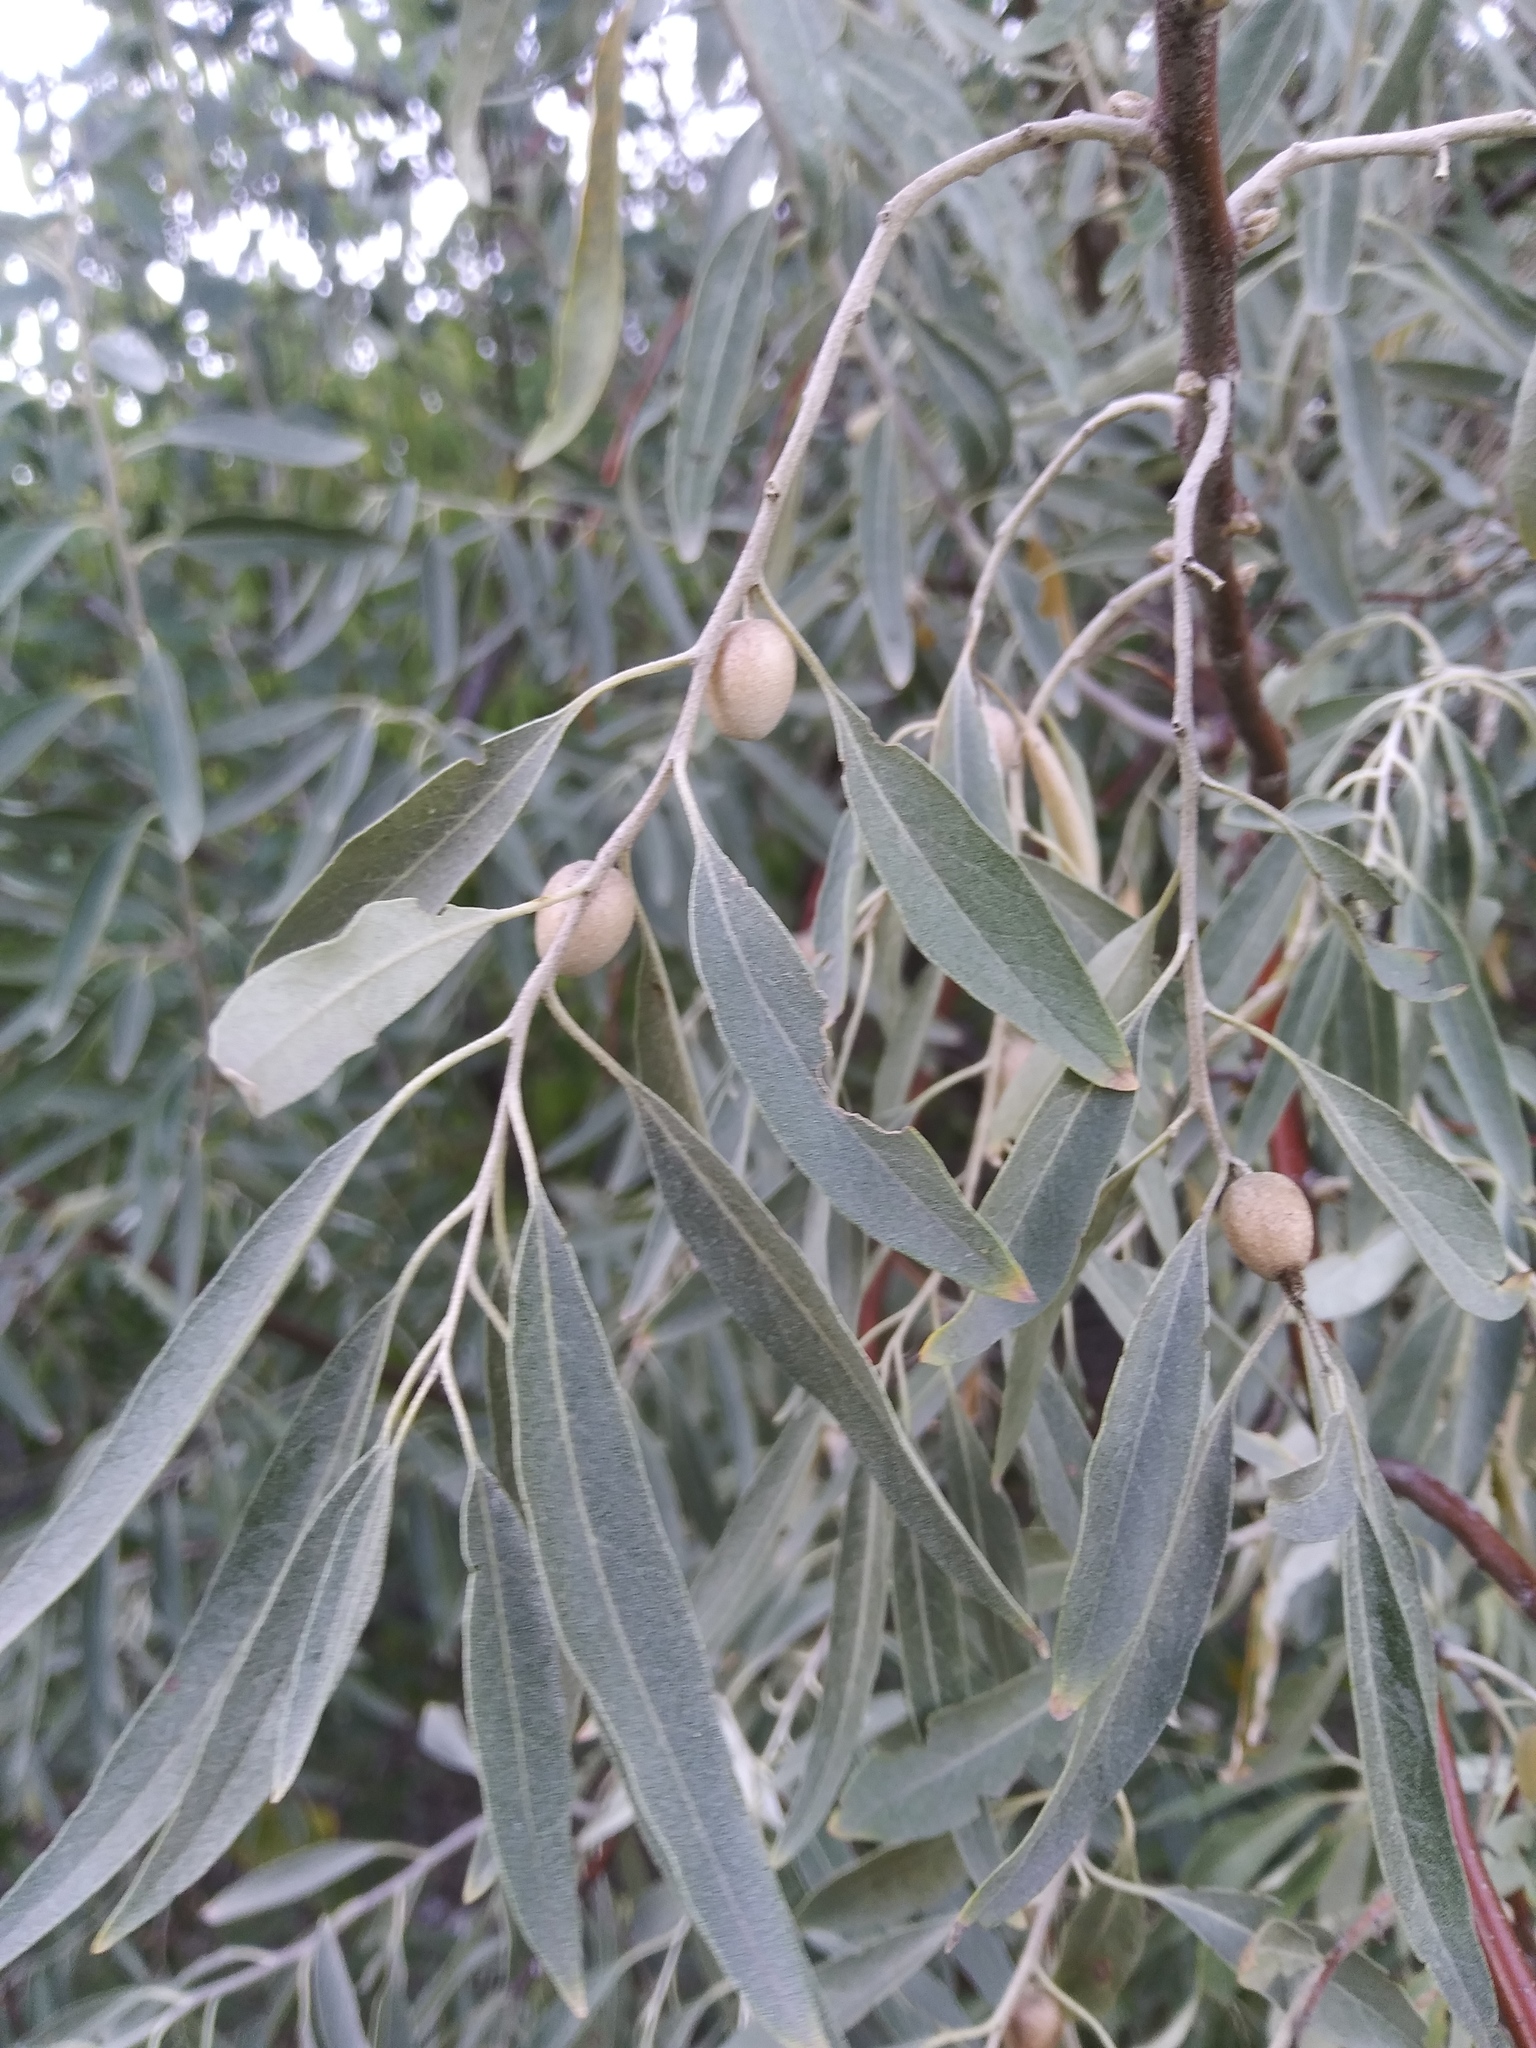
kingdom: Plantae
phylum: Tracheophyta
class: Magnoliopsida
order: Rosales
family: Elaeagnaceae
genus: Elaeagnus
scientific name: Elaeagnus angustifolia
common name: Russian olive
